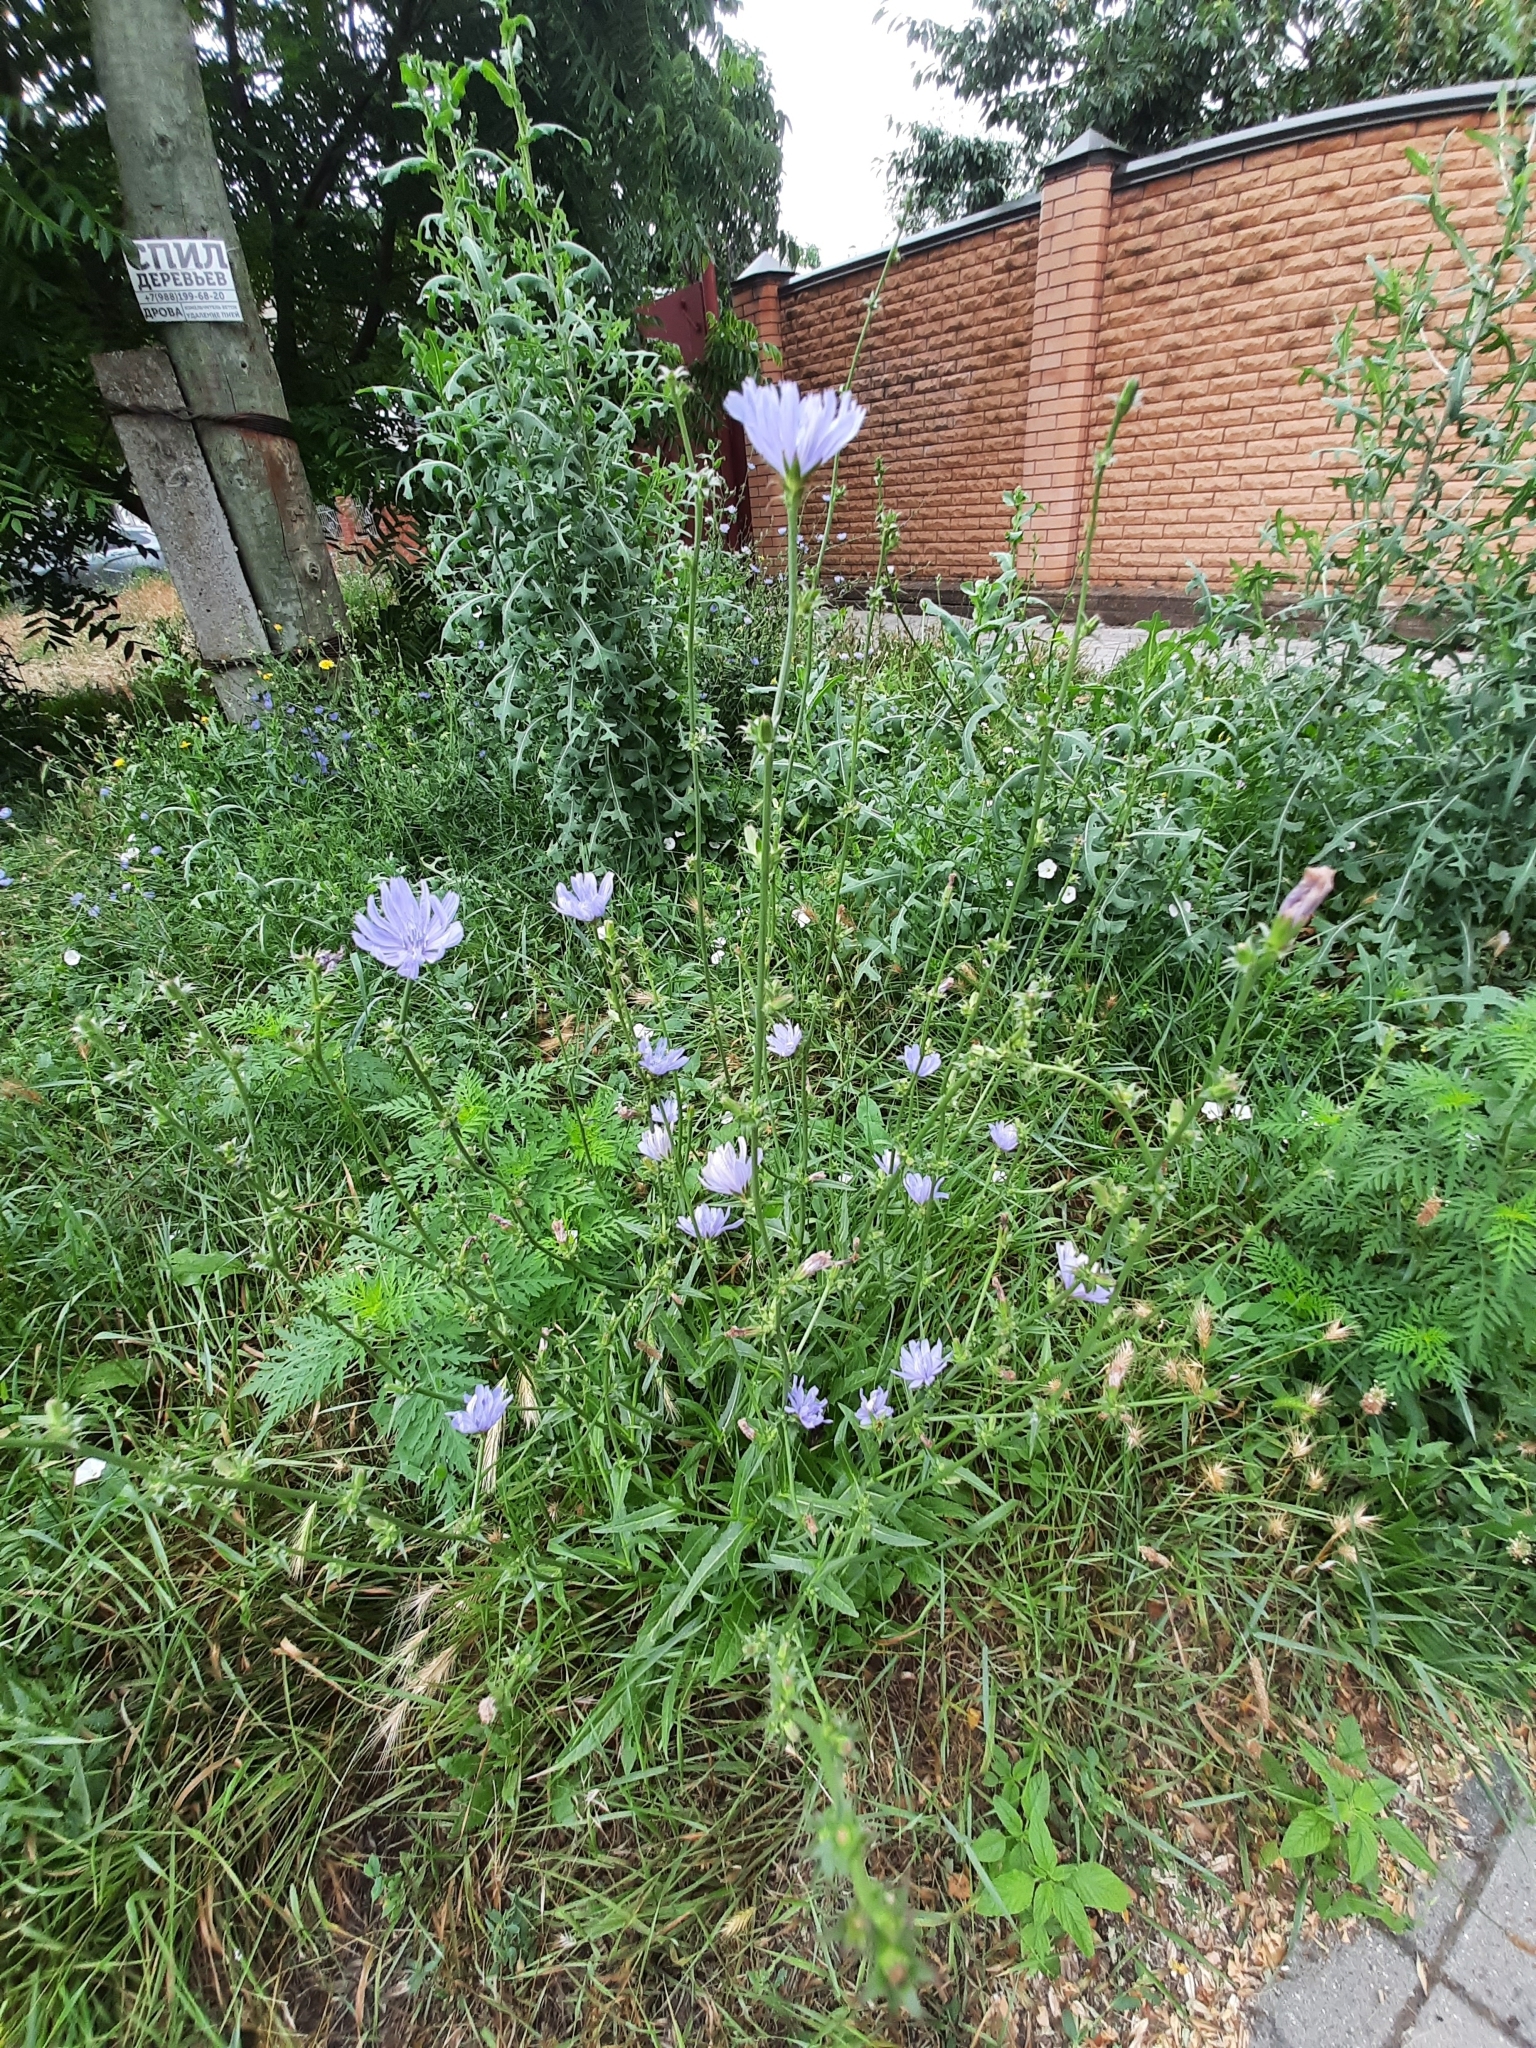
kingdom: Plantae
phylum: Tracheophyta
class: Magnoliopsida
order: Asterales
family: Asteraceae
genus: Cichorium
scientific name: Cichorium intybus
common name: Chicory
